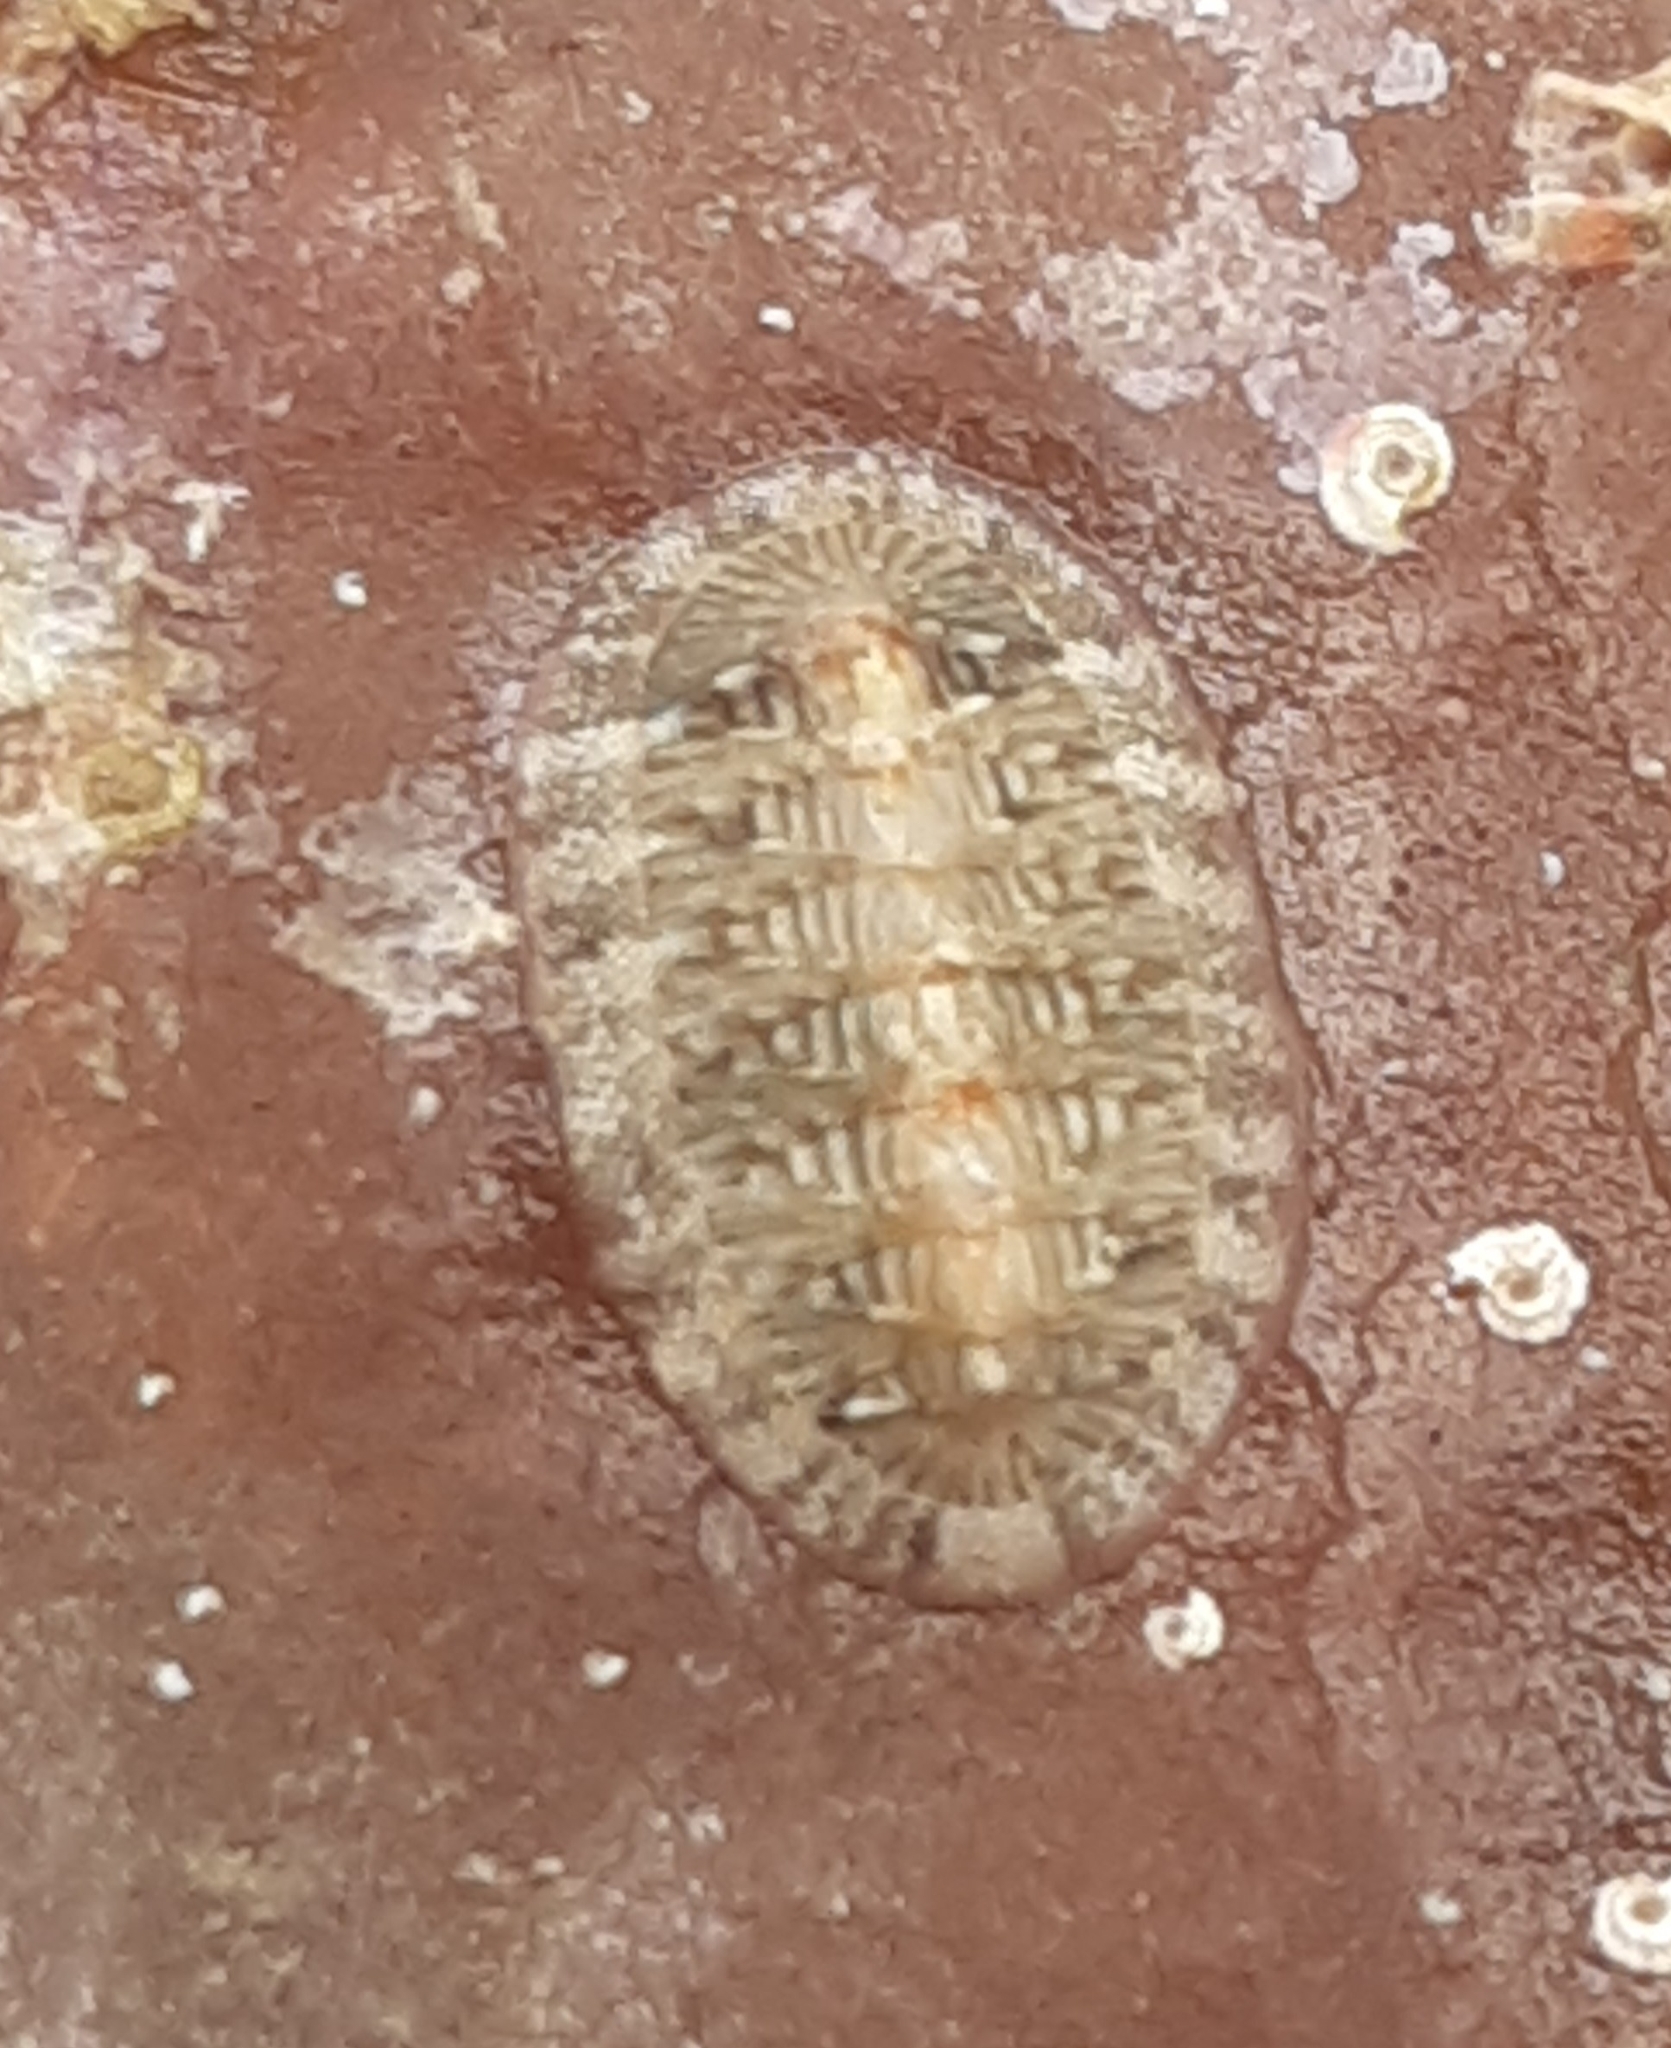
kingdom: Animalia
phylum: Mollusca
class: Polyplacophora
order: Chitonida
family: Chitonidae
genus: Rhyssoplax
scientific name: Rhyssoplax olivacea
